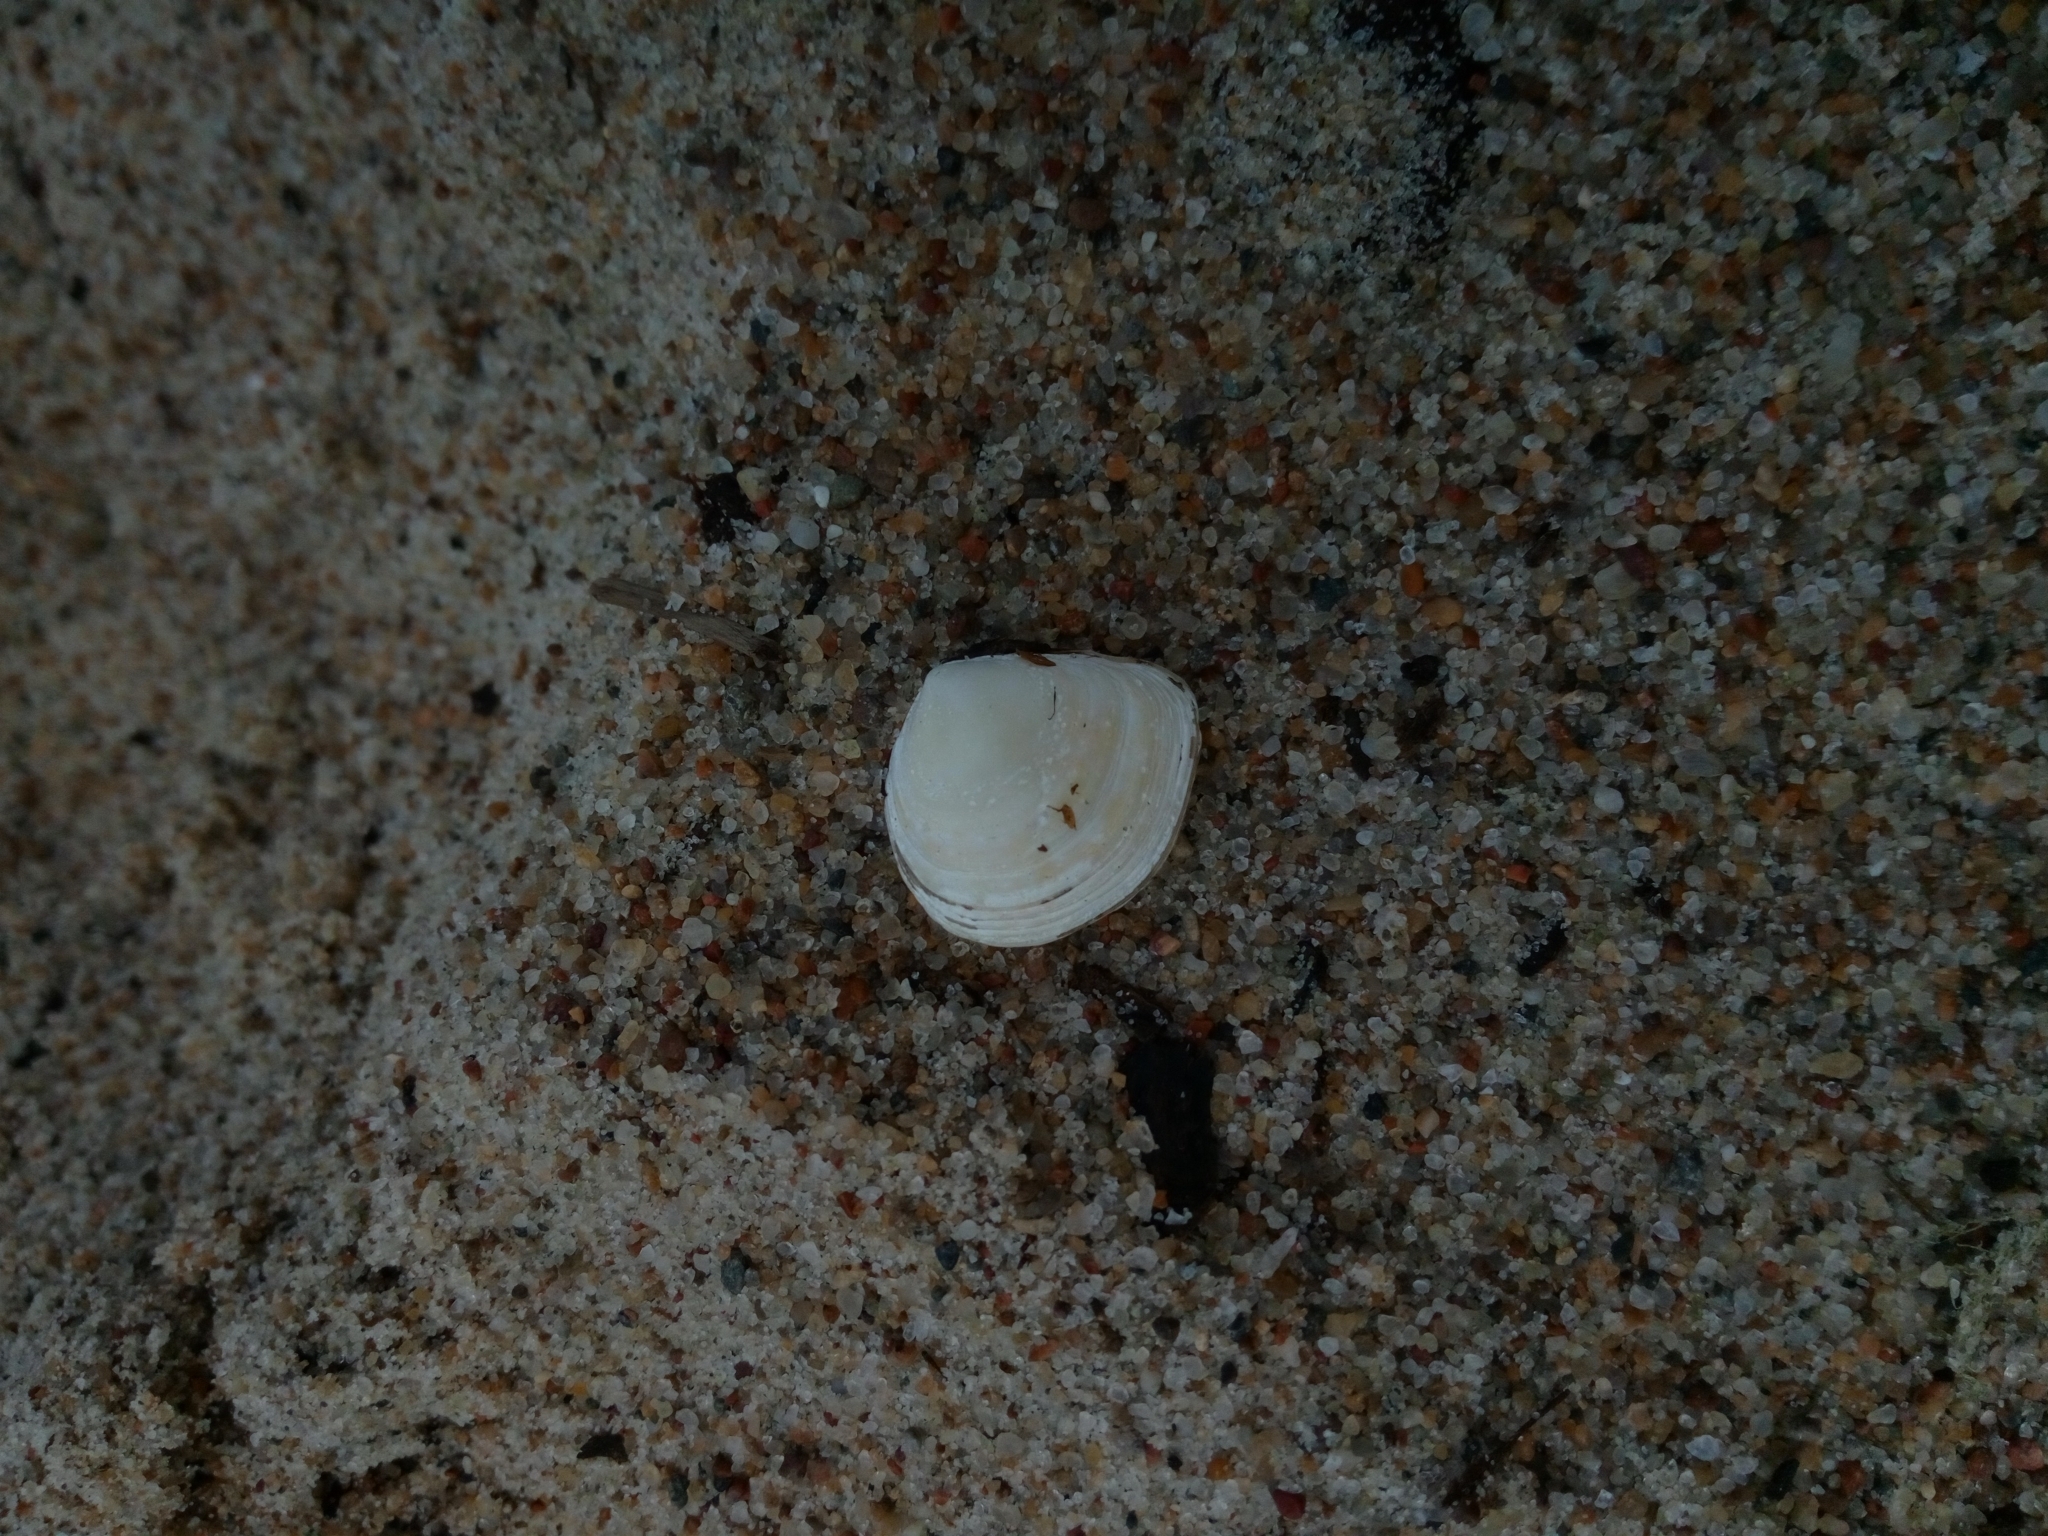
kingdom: Animalia
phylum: Mollusca
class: Bivalvia
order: Cardiida
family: Tellinidae
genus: Macoma
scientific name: Macoma balthica
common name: Baltic tellin
